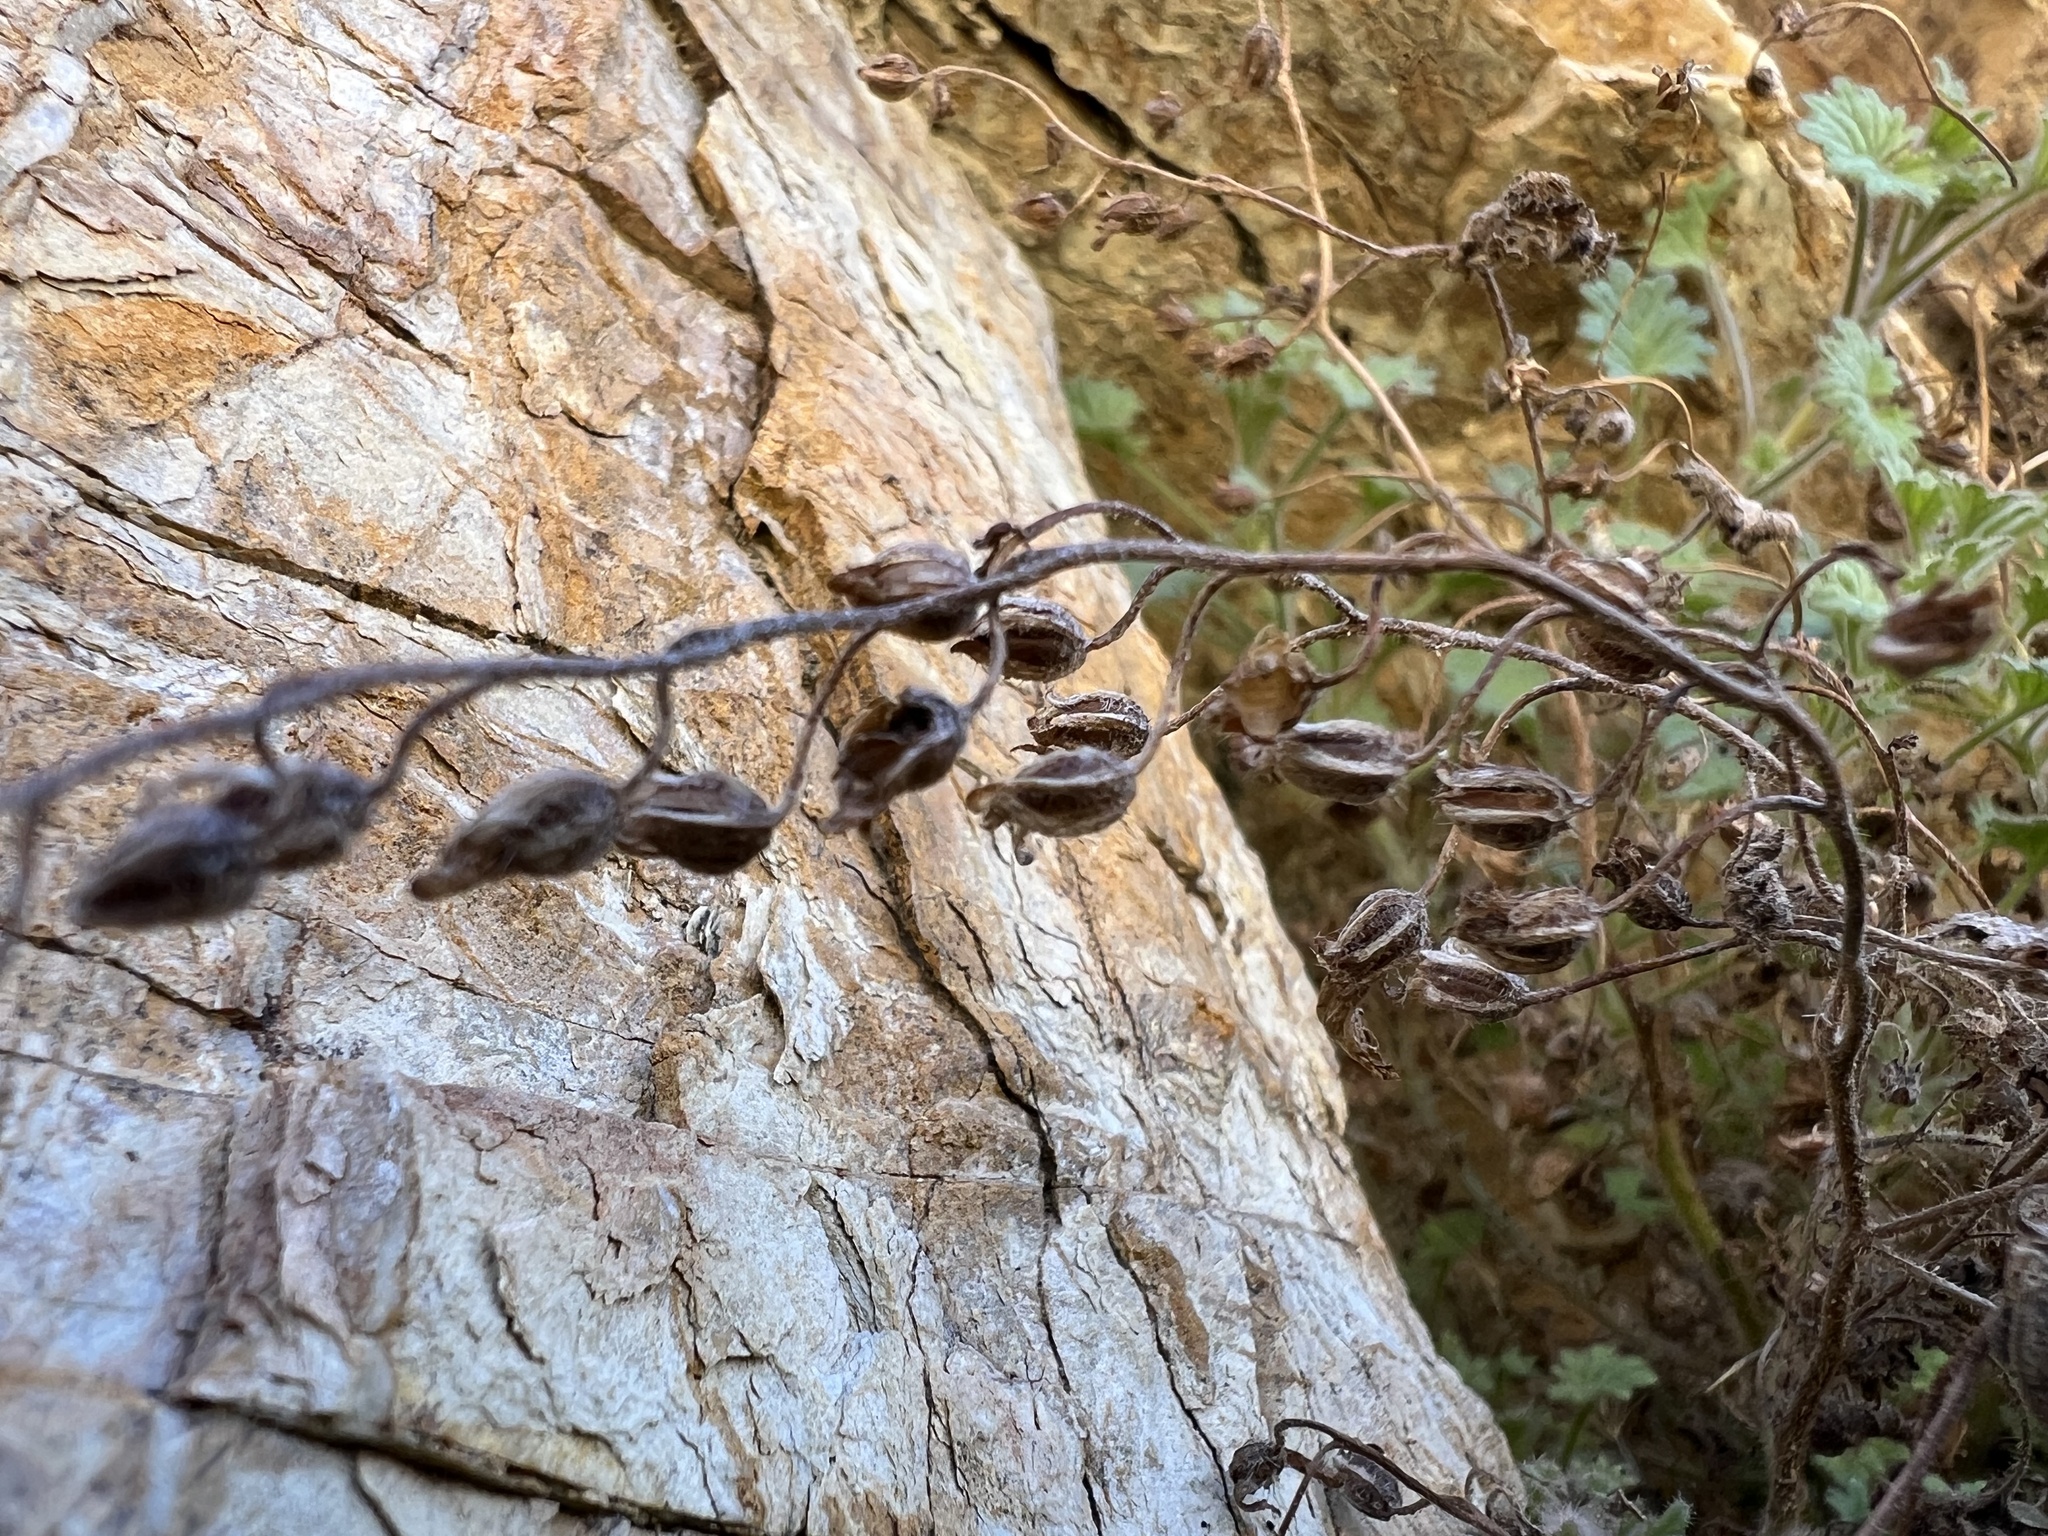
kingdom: Plantae
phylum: Tracheophyta
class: Magnoliopsida
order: Boraginales
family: Hydrophyllaceae
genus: Phacelia
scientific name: Phacelia perityloides
